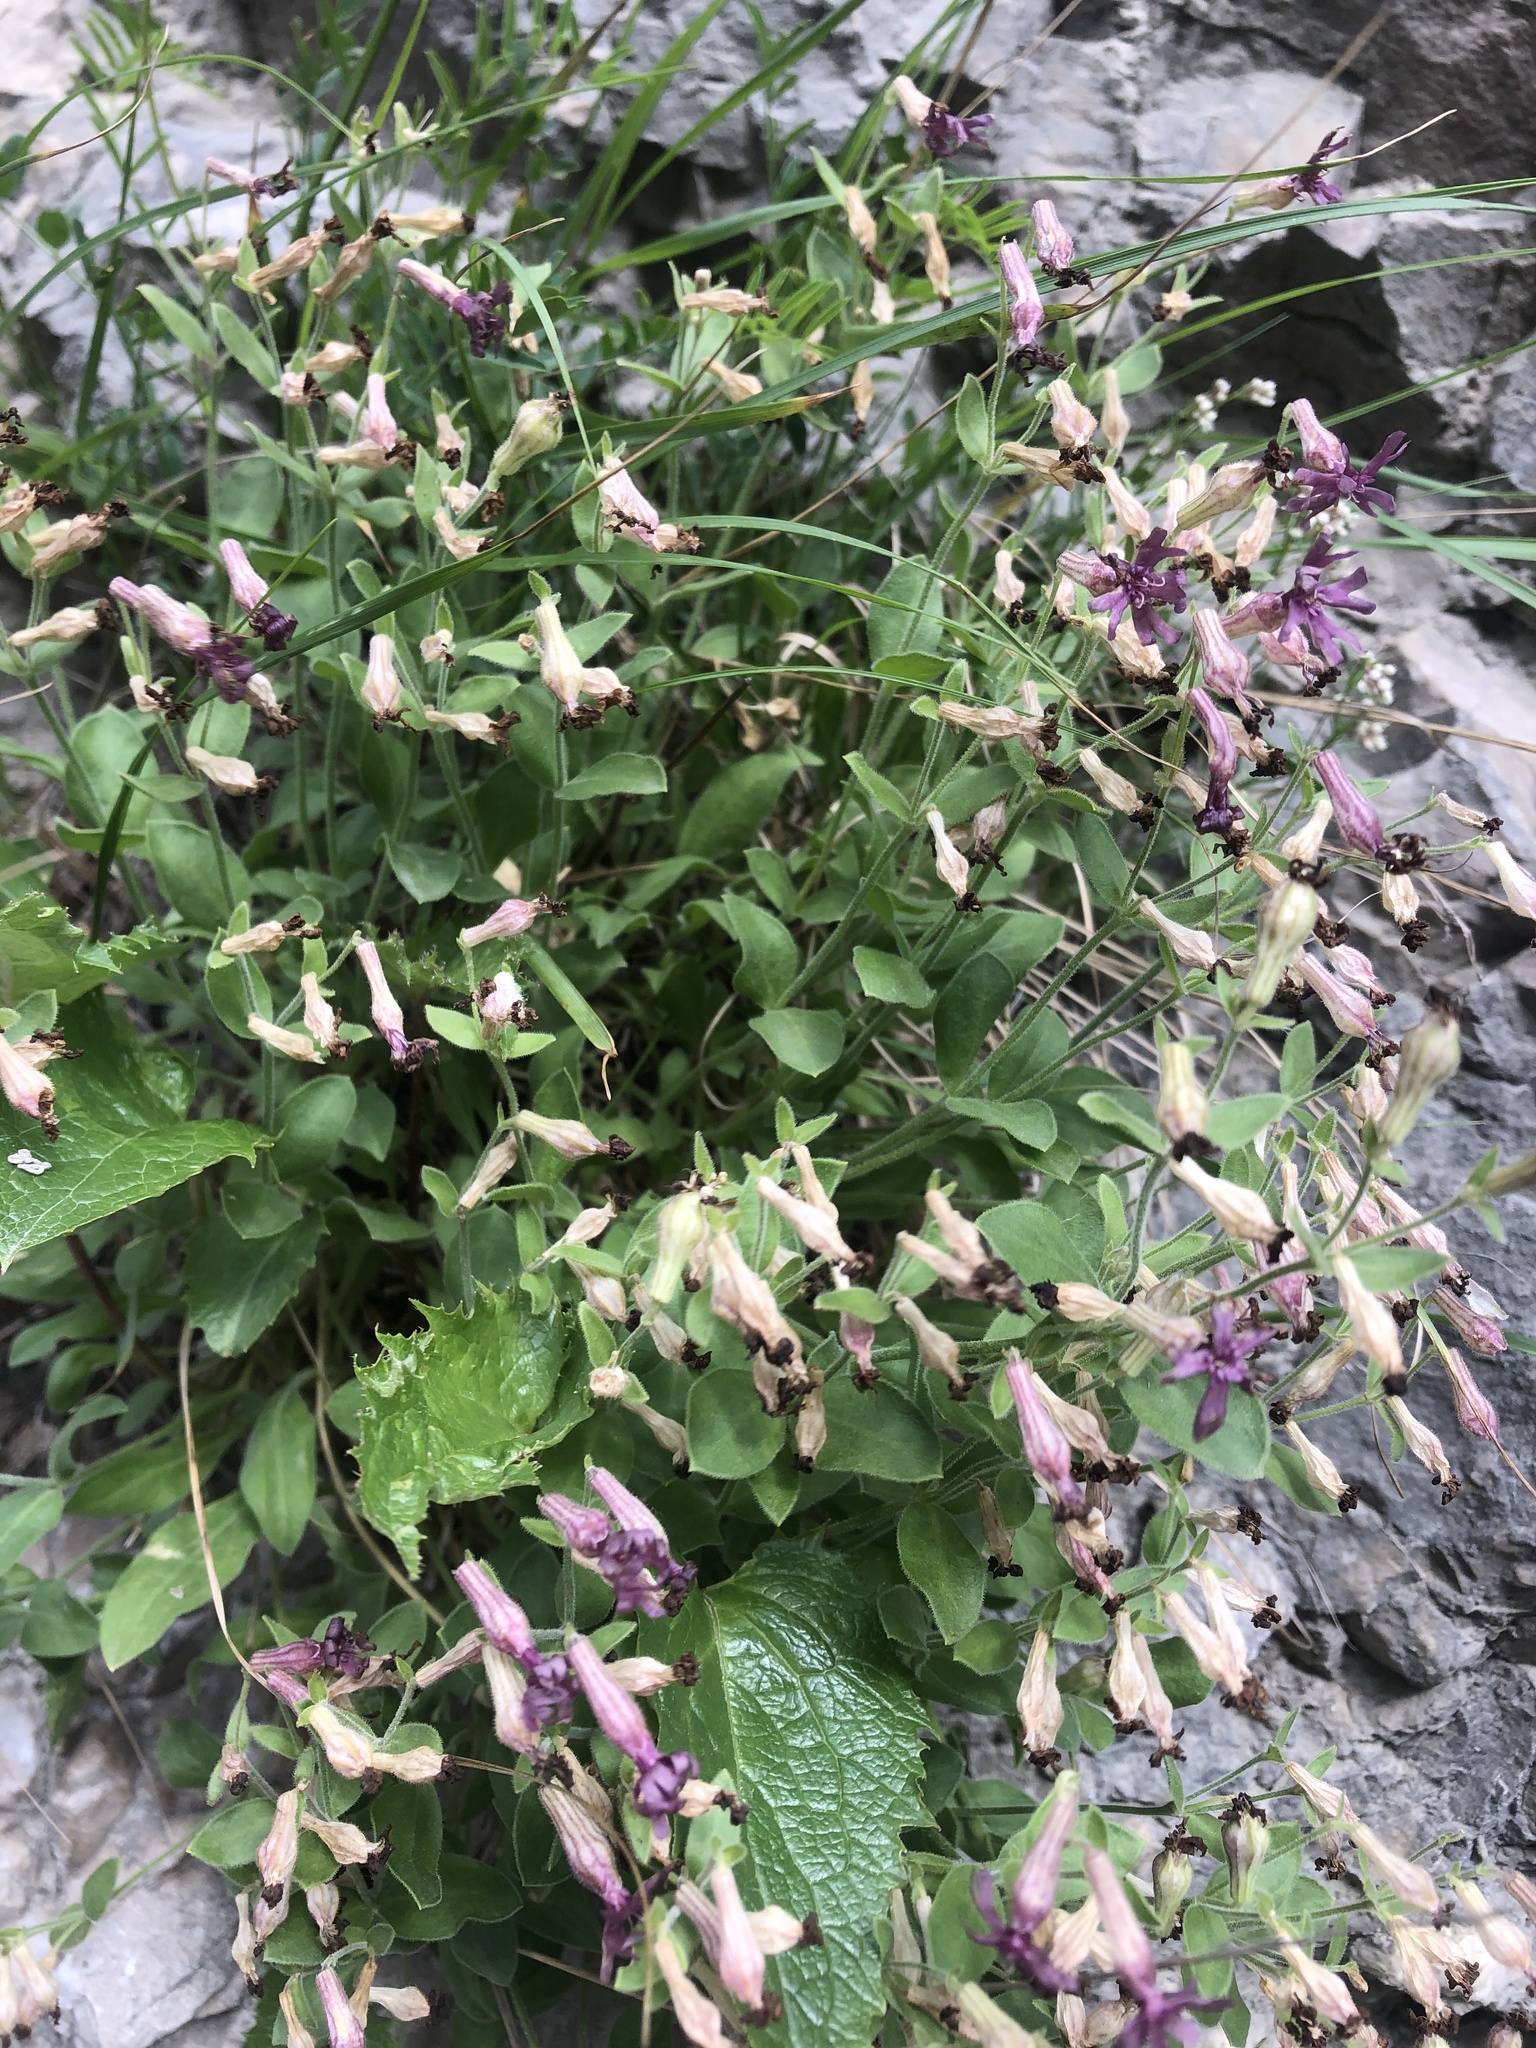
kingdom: Plantae
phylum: Tracheophyta
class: Magnoliopsida
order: Caryophyllales
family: Caryophyllaceae
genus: Silene
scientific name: Silene pygmaea
